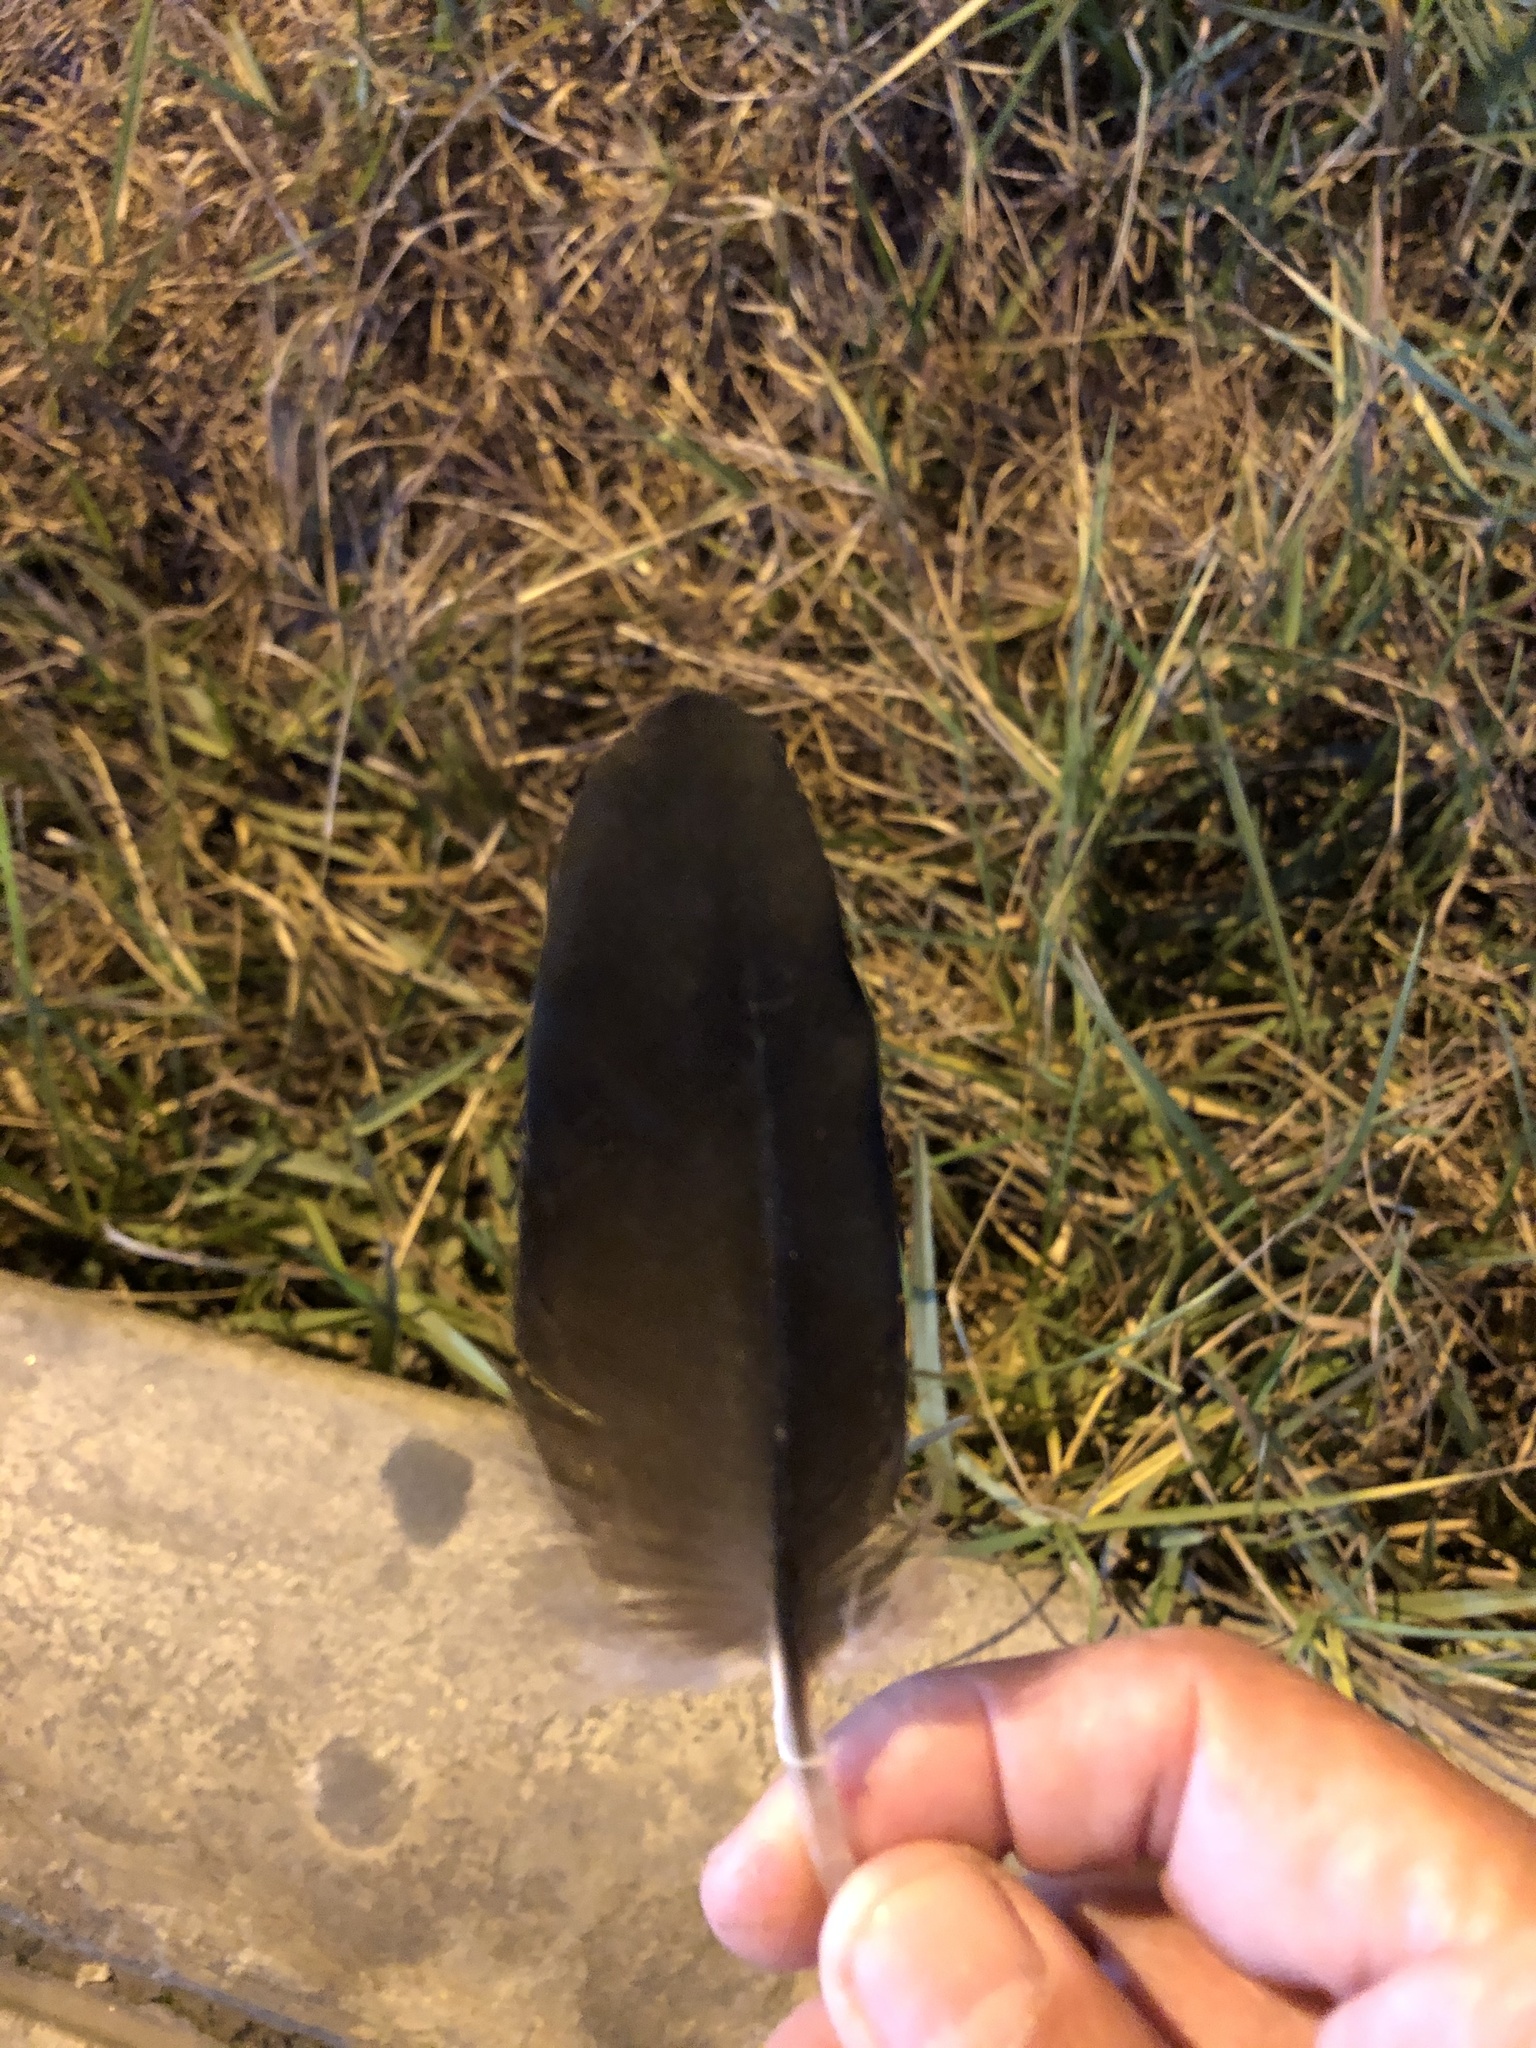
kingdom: Animalia
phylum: Chordata
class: Aves
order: Accipitriformes
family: Cathartidae
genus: Coragyps
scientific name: Coragyps atratus
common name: Black vulture
